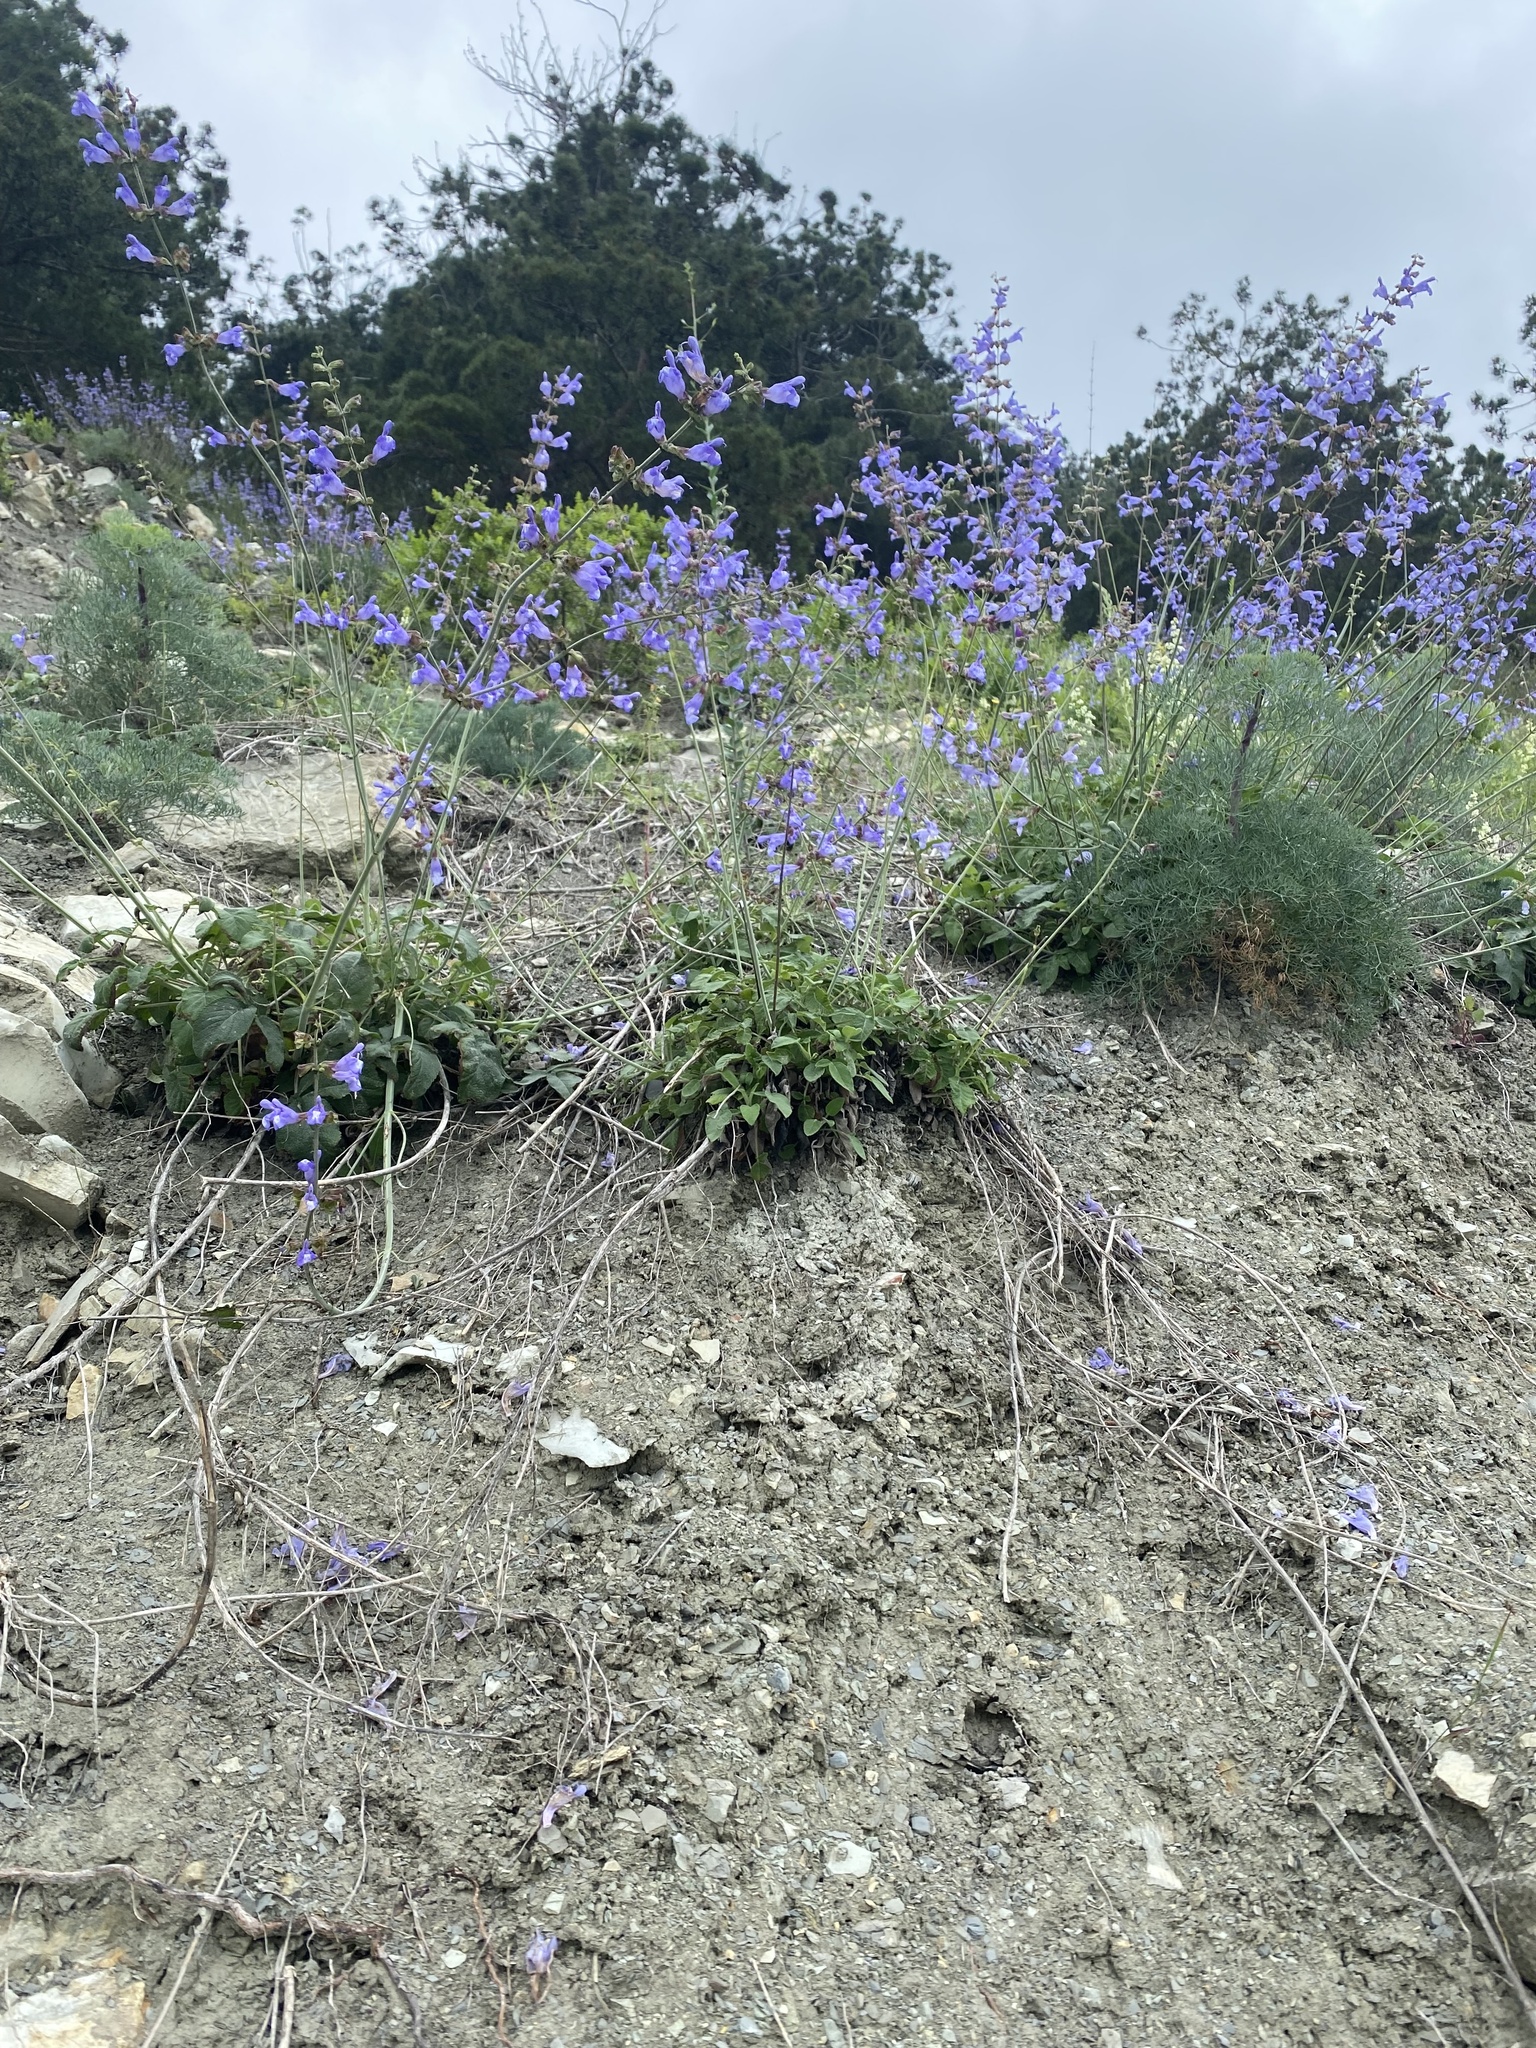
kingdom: Plantae
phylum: Tracheophyta
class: Magnoliopsida
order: Lamiales
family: Lamiaceae
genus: Salvia
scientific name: Salvia ringens
